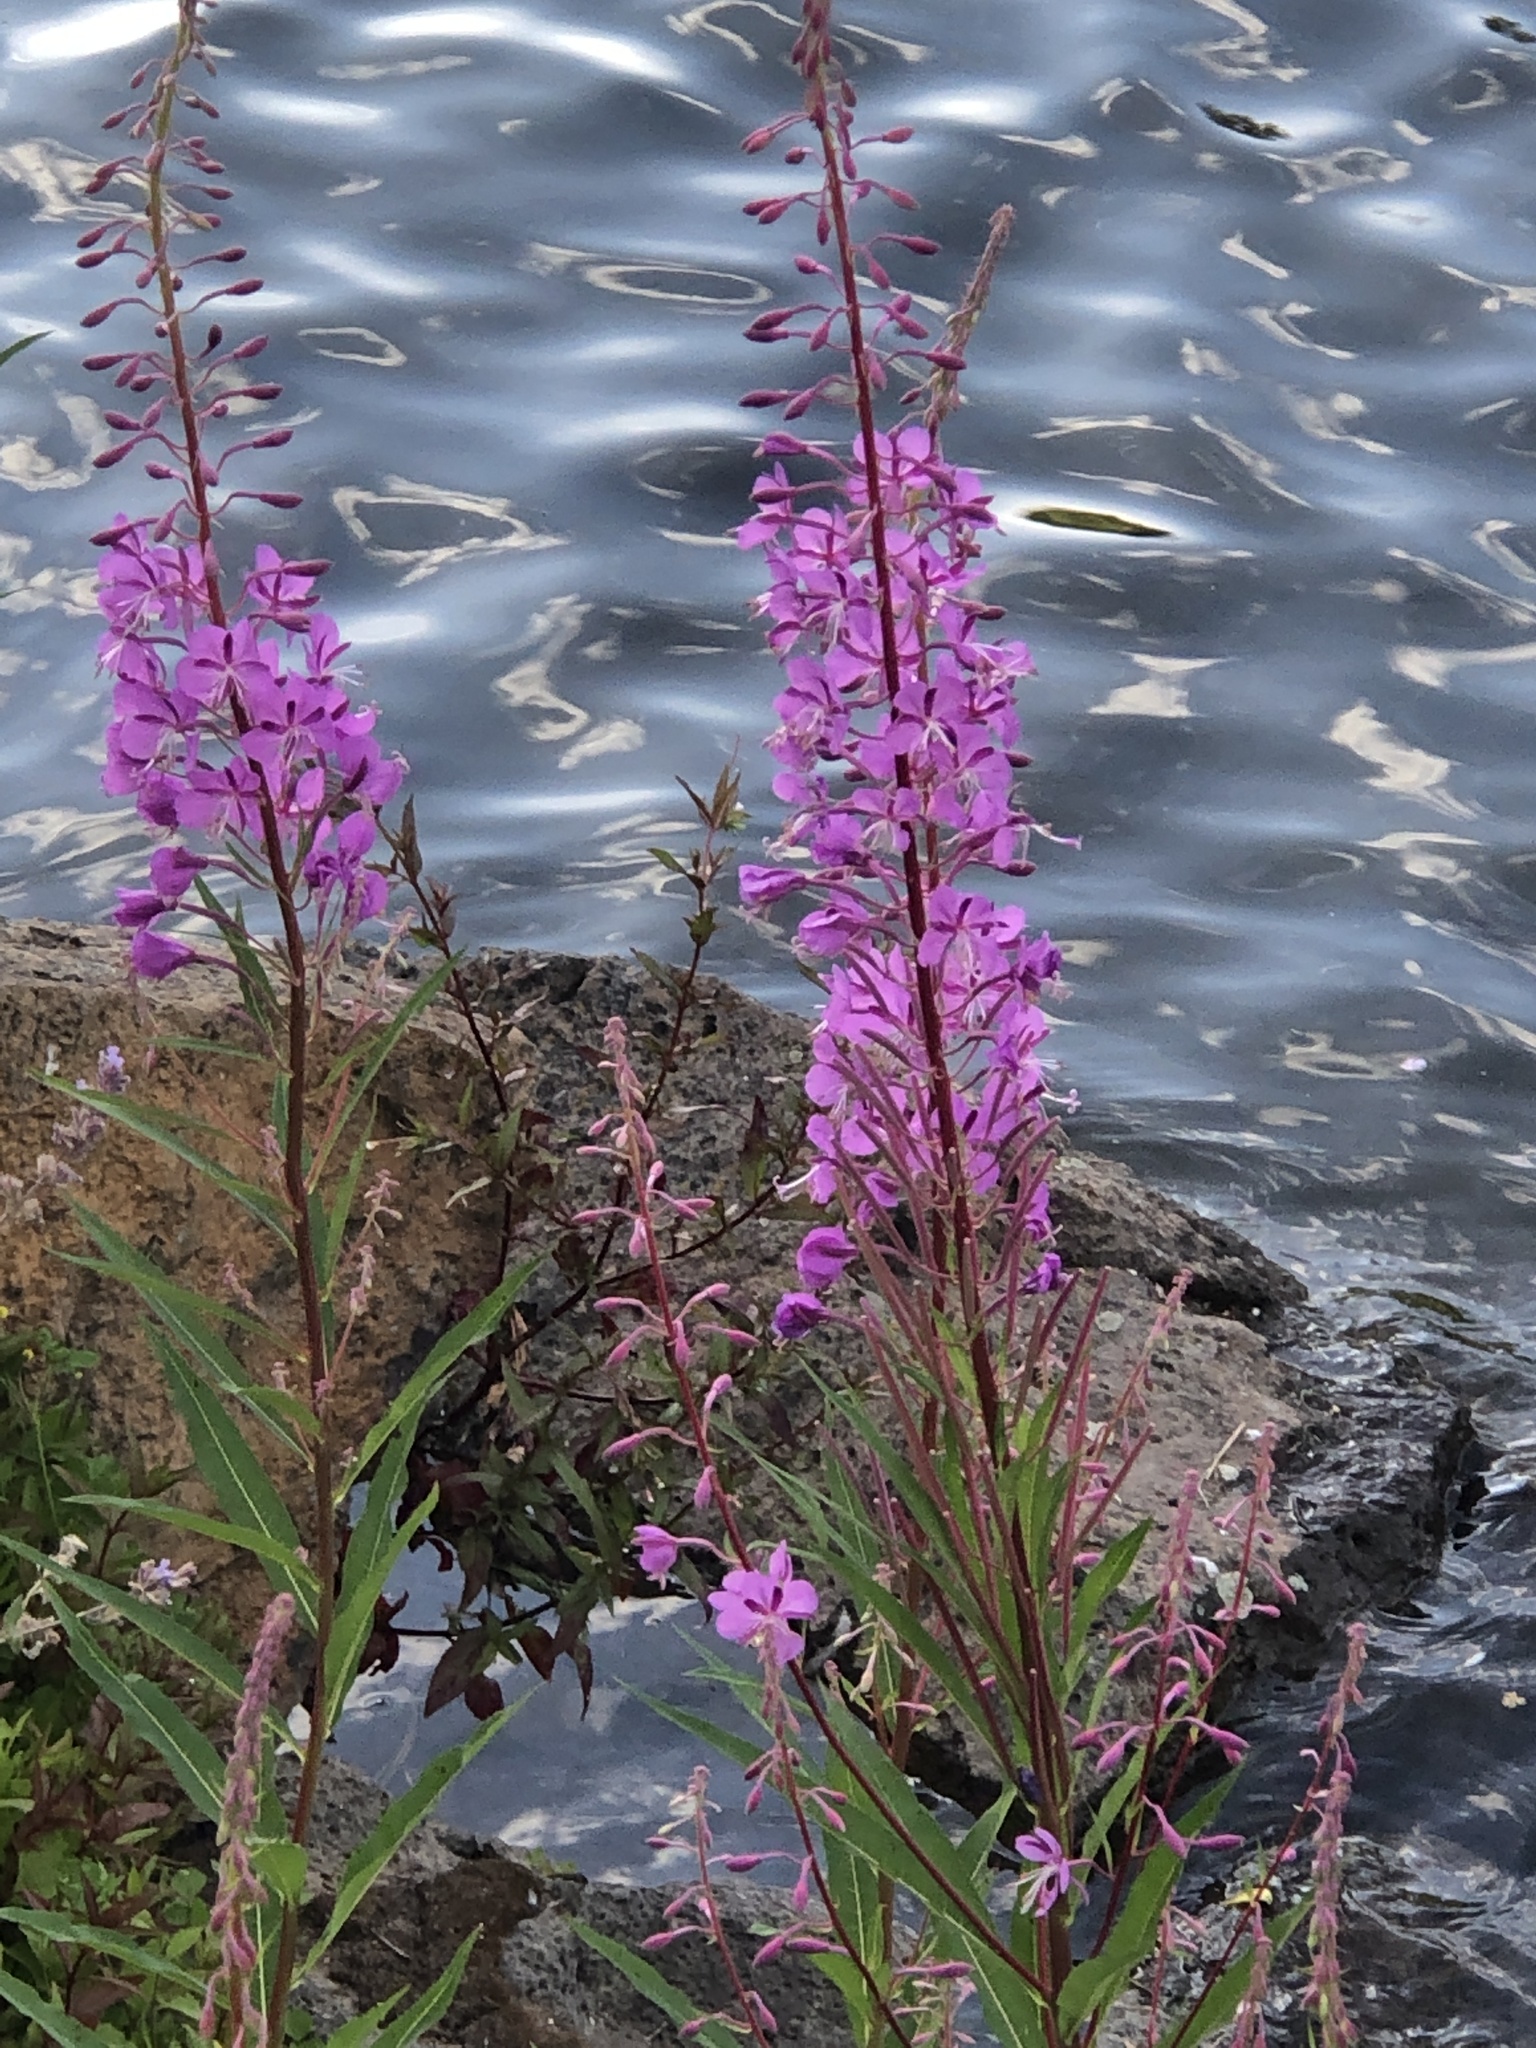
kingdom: Plantae
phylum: Tracheophyta
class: Magnoliopsida
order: Myrtales
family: Onagraceae
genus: Chamaenerion
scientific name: Chamaenerion angustifolium
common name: Fireweed
